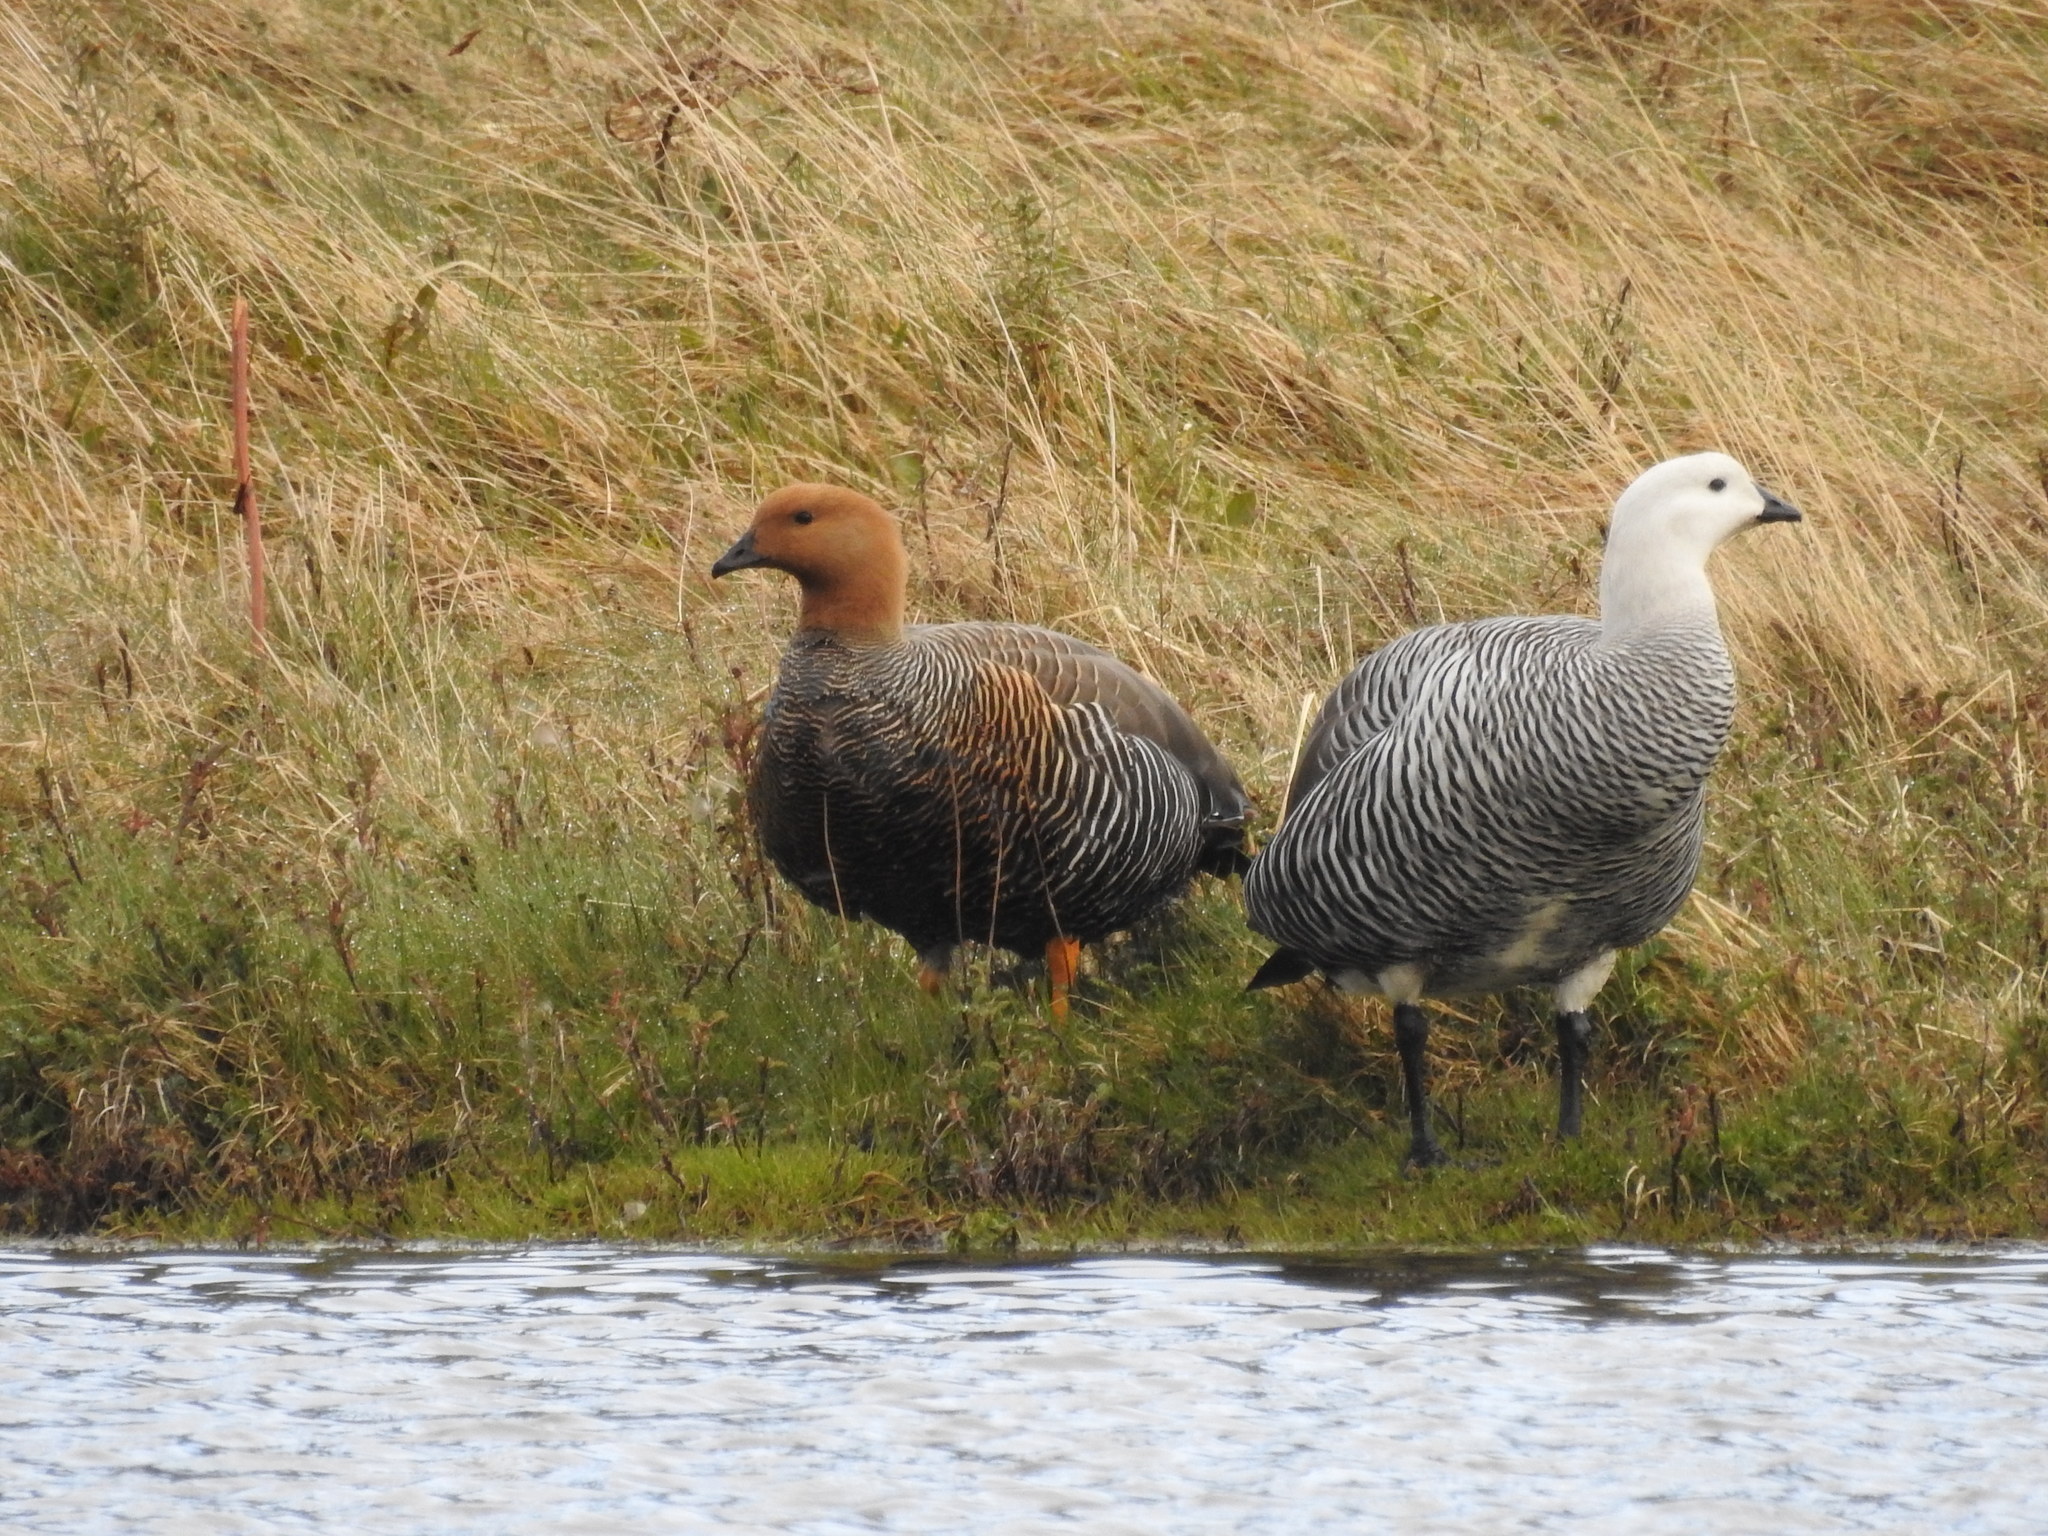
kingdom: Animalia
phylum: Chordata
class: Aves
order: Anseriformes
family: Anatidae
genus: Chloephaga
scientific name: Chloephaga picta
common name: Upland goose
